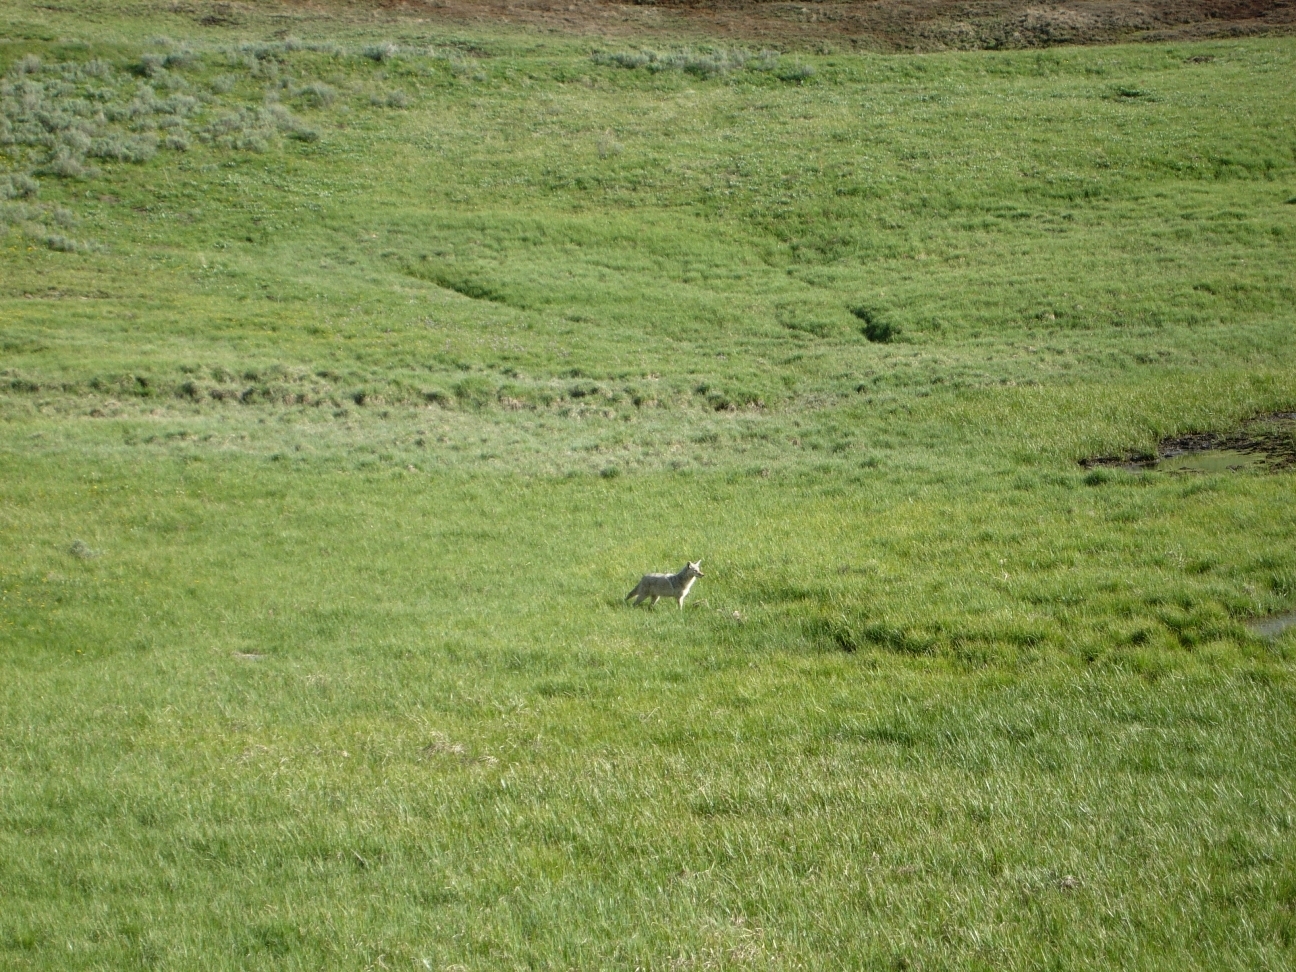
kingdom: Animalia
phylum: Chordata
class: Mammalia
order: Carnivora
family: Canidae
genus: Canis
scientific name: Canis latrans
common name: Coyote
